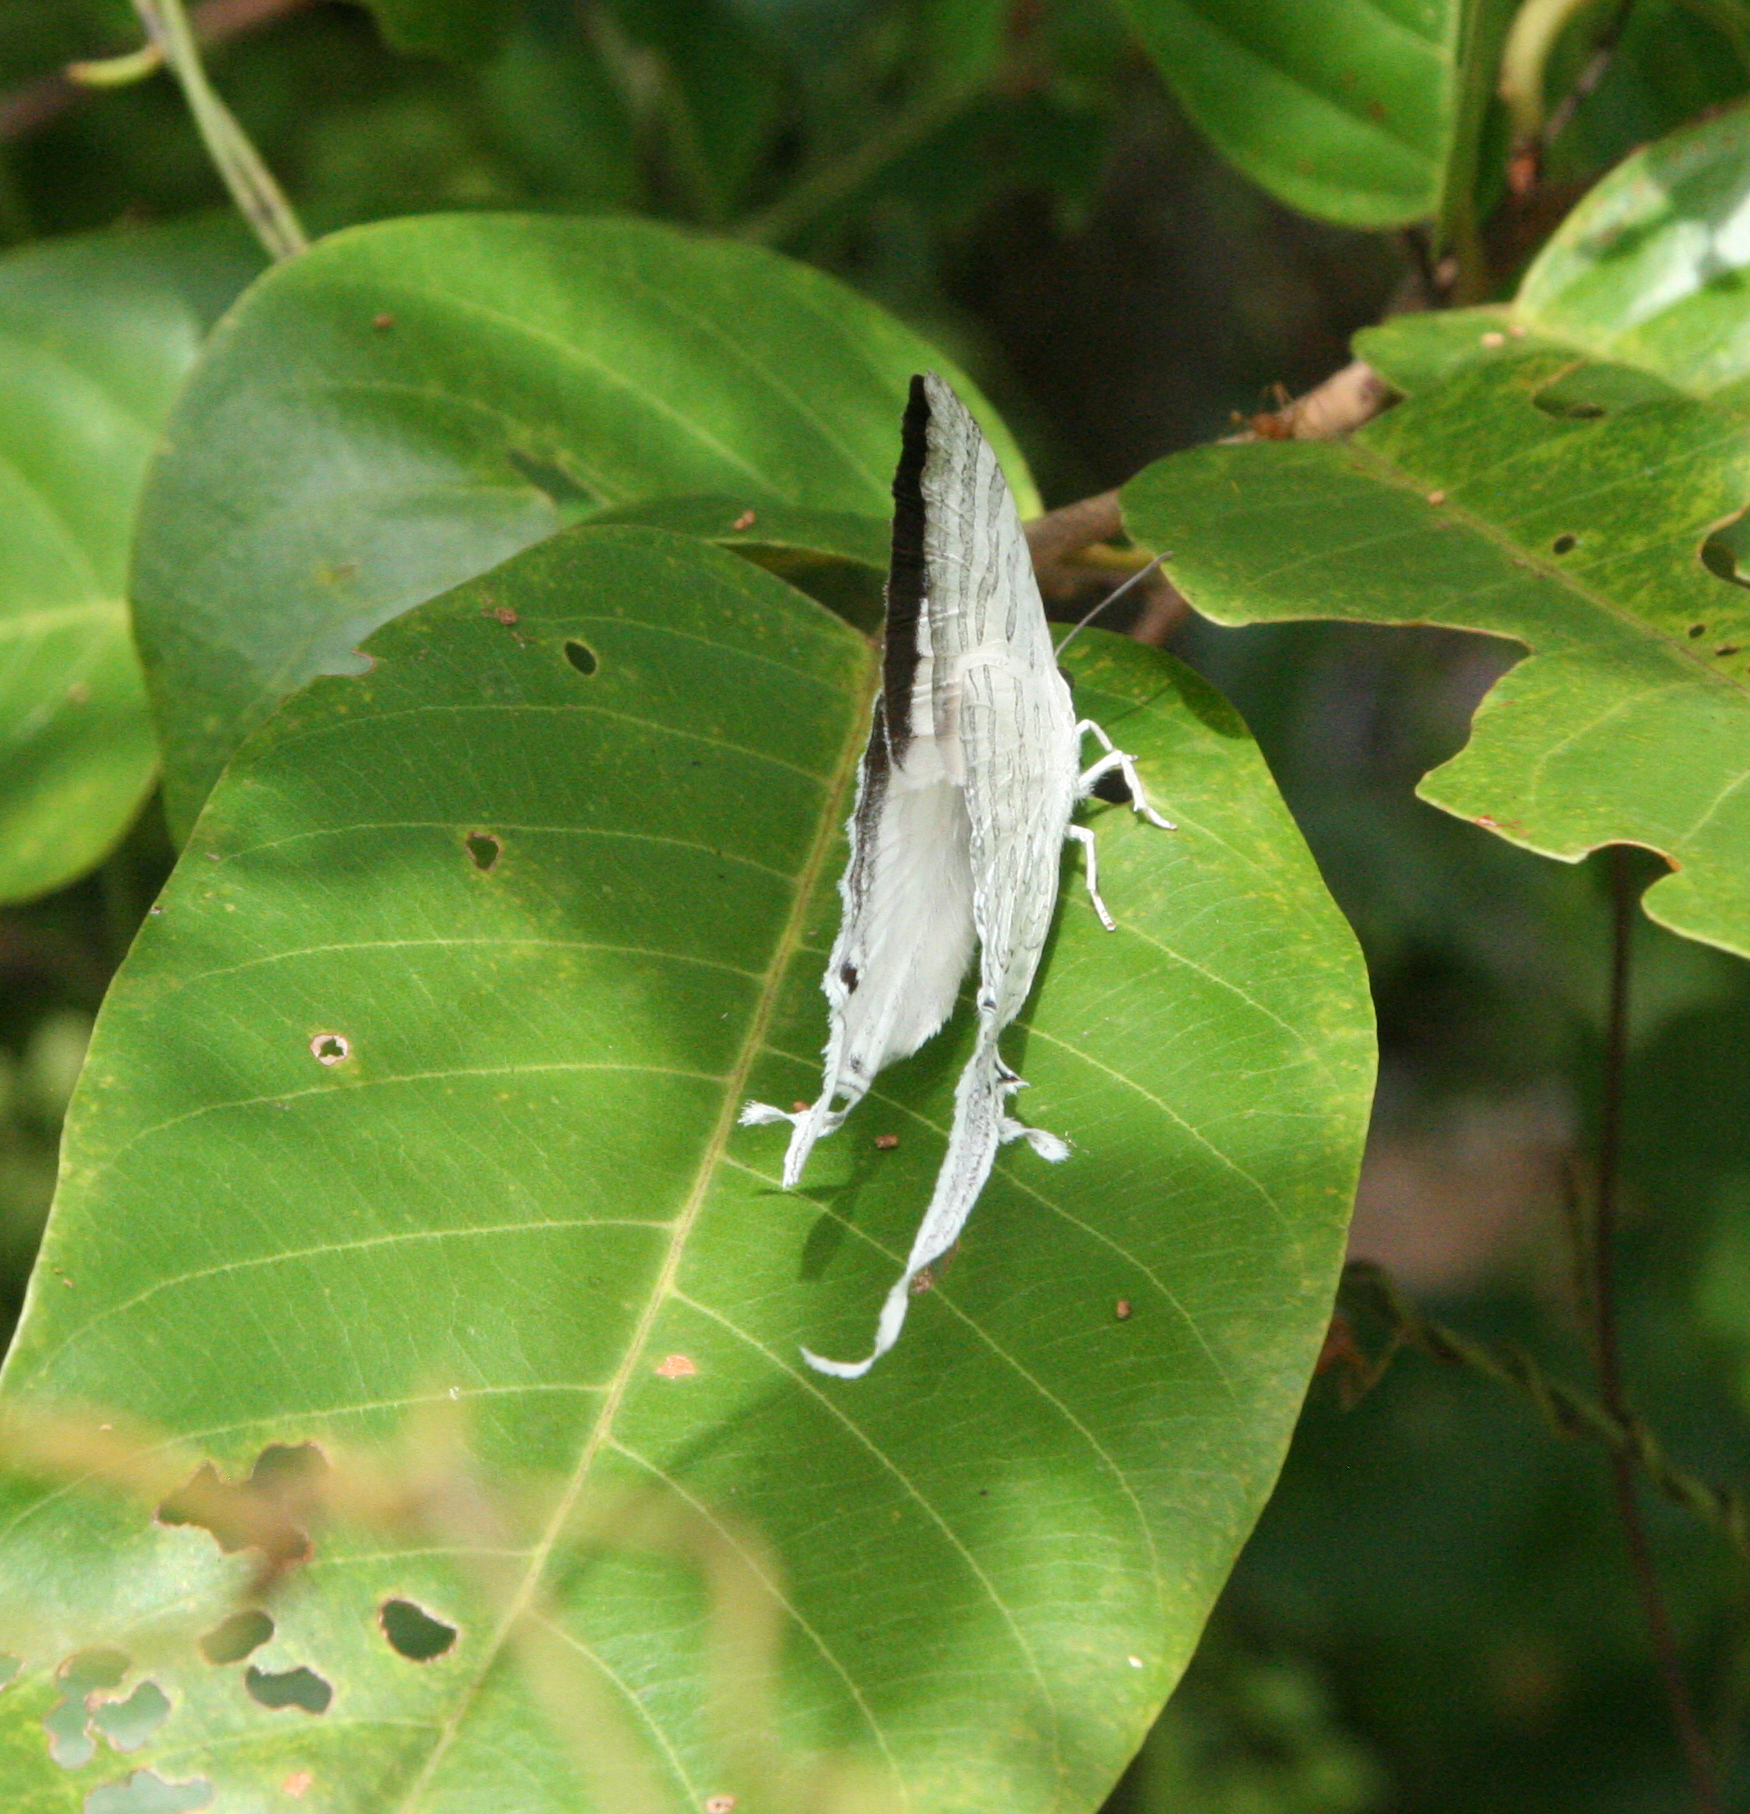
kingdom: Animalia
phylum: Arthropoda
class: Insecta
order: Lepidoptera
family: Lycaenidae
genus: Neomyrina
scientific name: Neomyrina hiemalis
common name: White imperial
